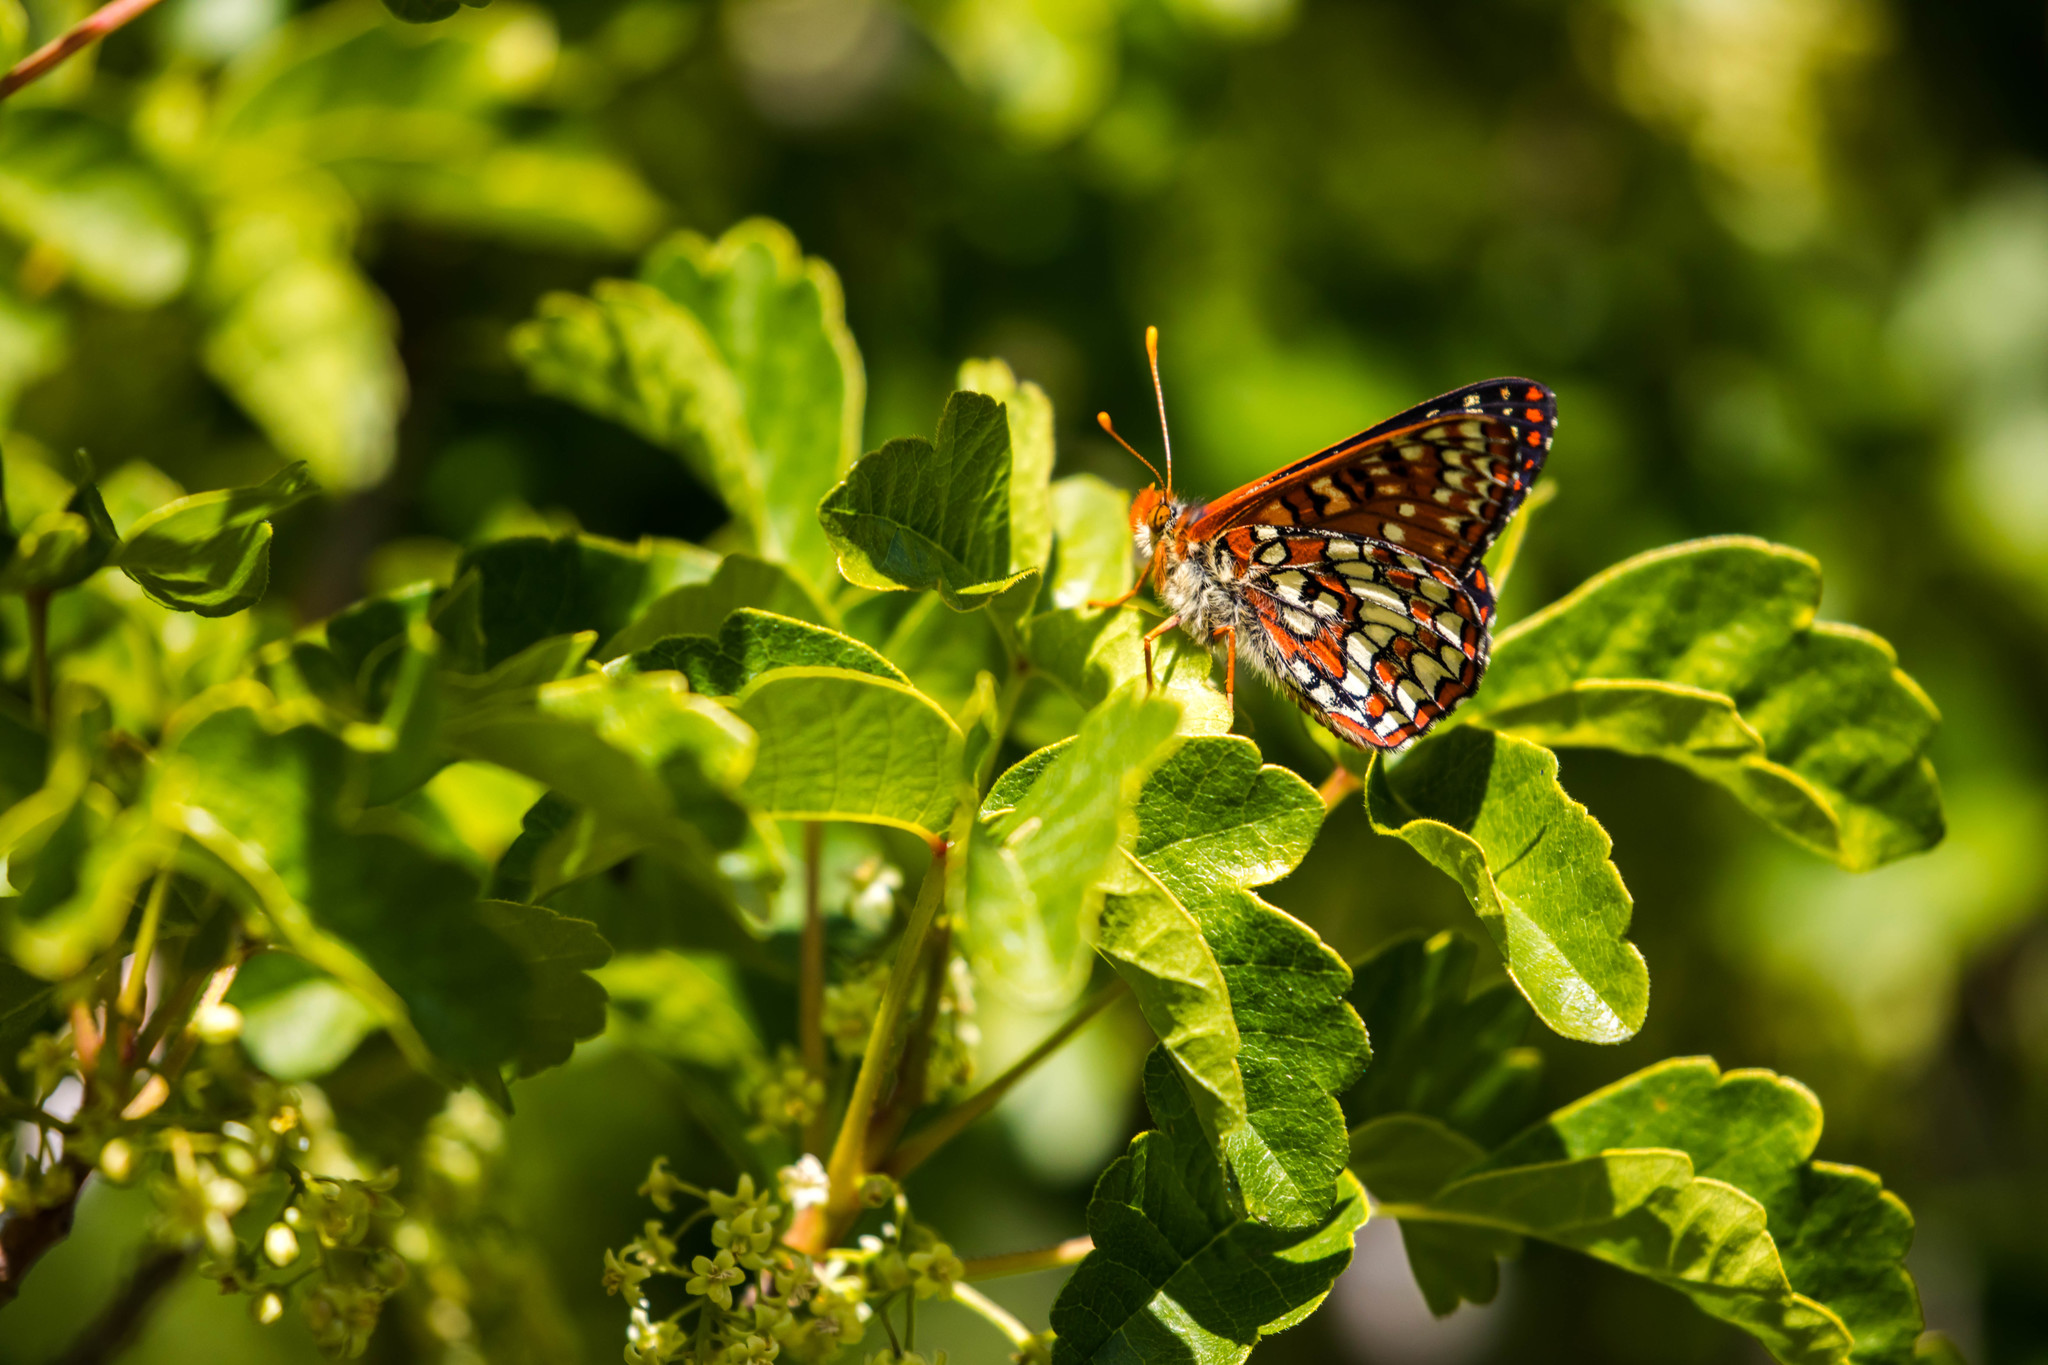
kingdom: Animalia
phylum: Arthropoda
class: Insecta
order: Lepidoptera
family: Nymphalidae
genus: Occidryas
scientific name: Occidryas chalcedona
